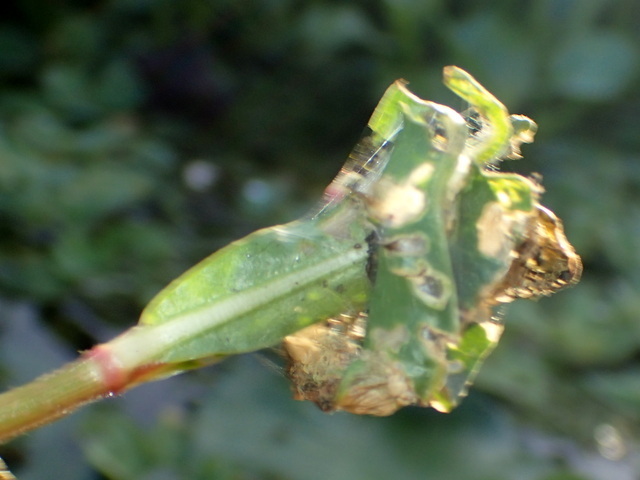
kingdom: Animalia
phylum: Arthropoda
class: Insecta
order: Lepidoptera
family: Crambidae
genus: Herpetogramma
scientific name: Herpetogramma bipunctalis
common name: Southern beet webworm
